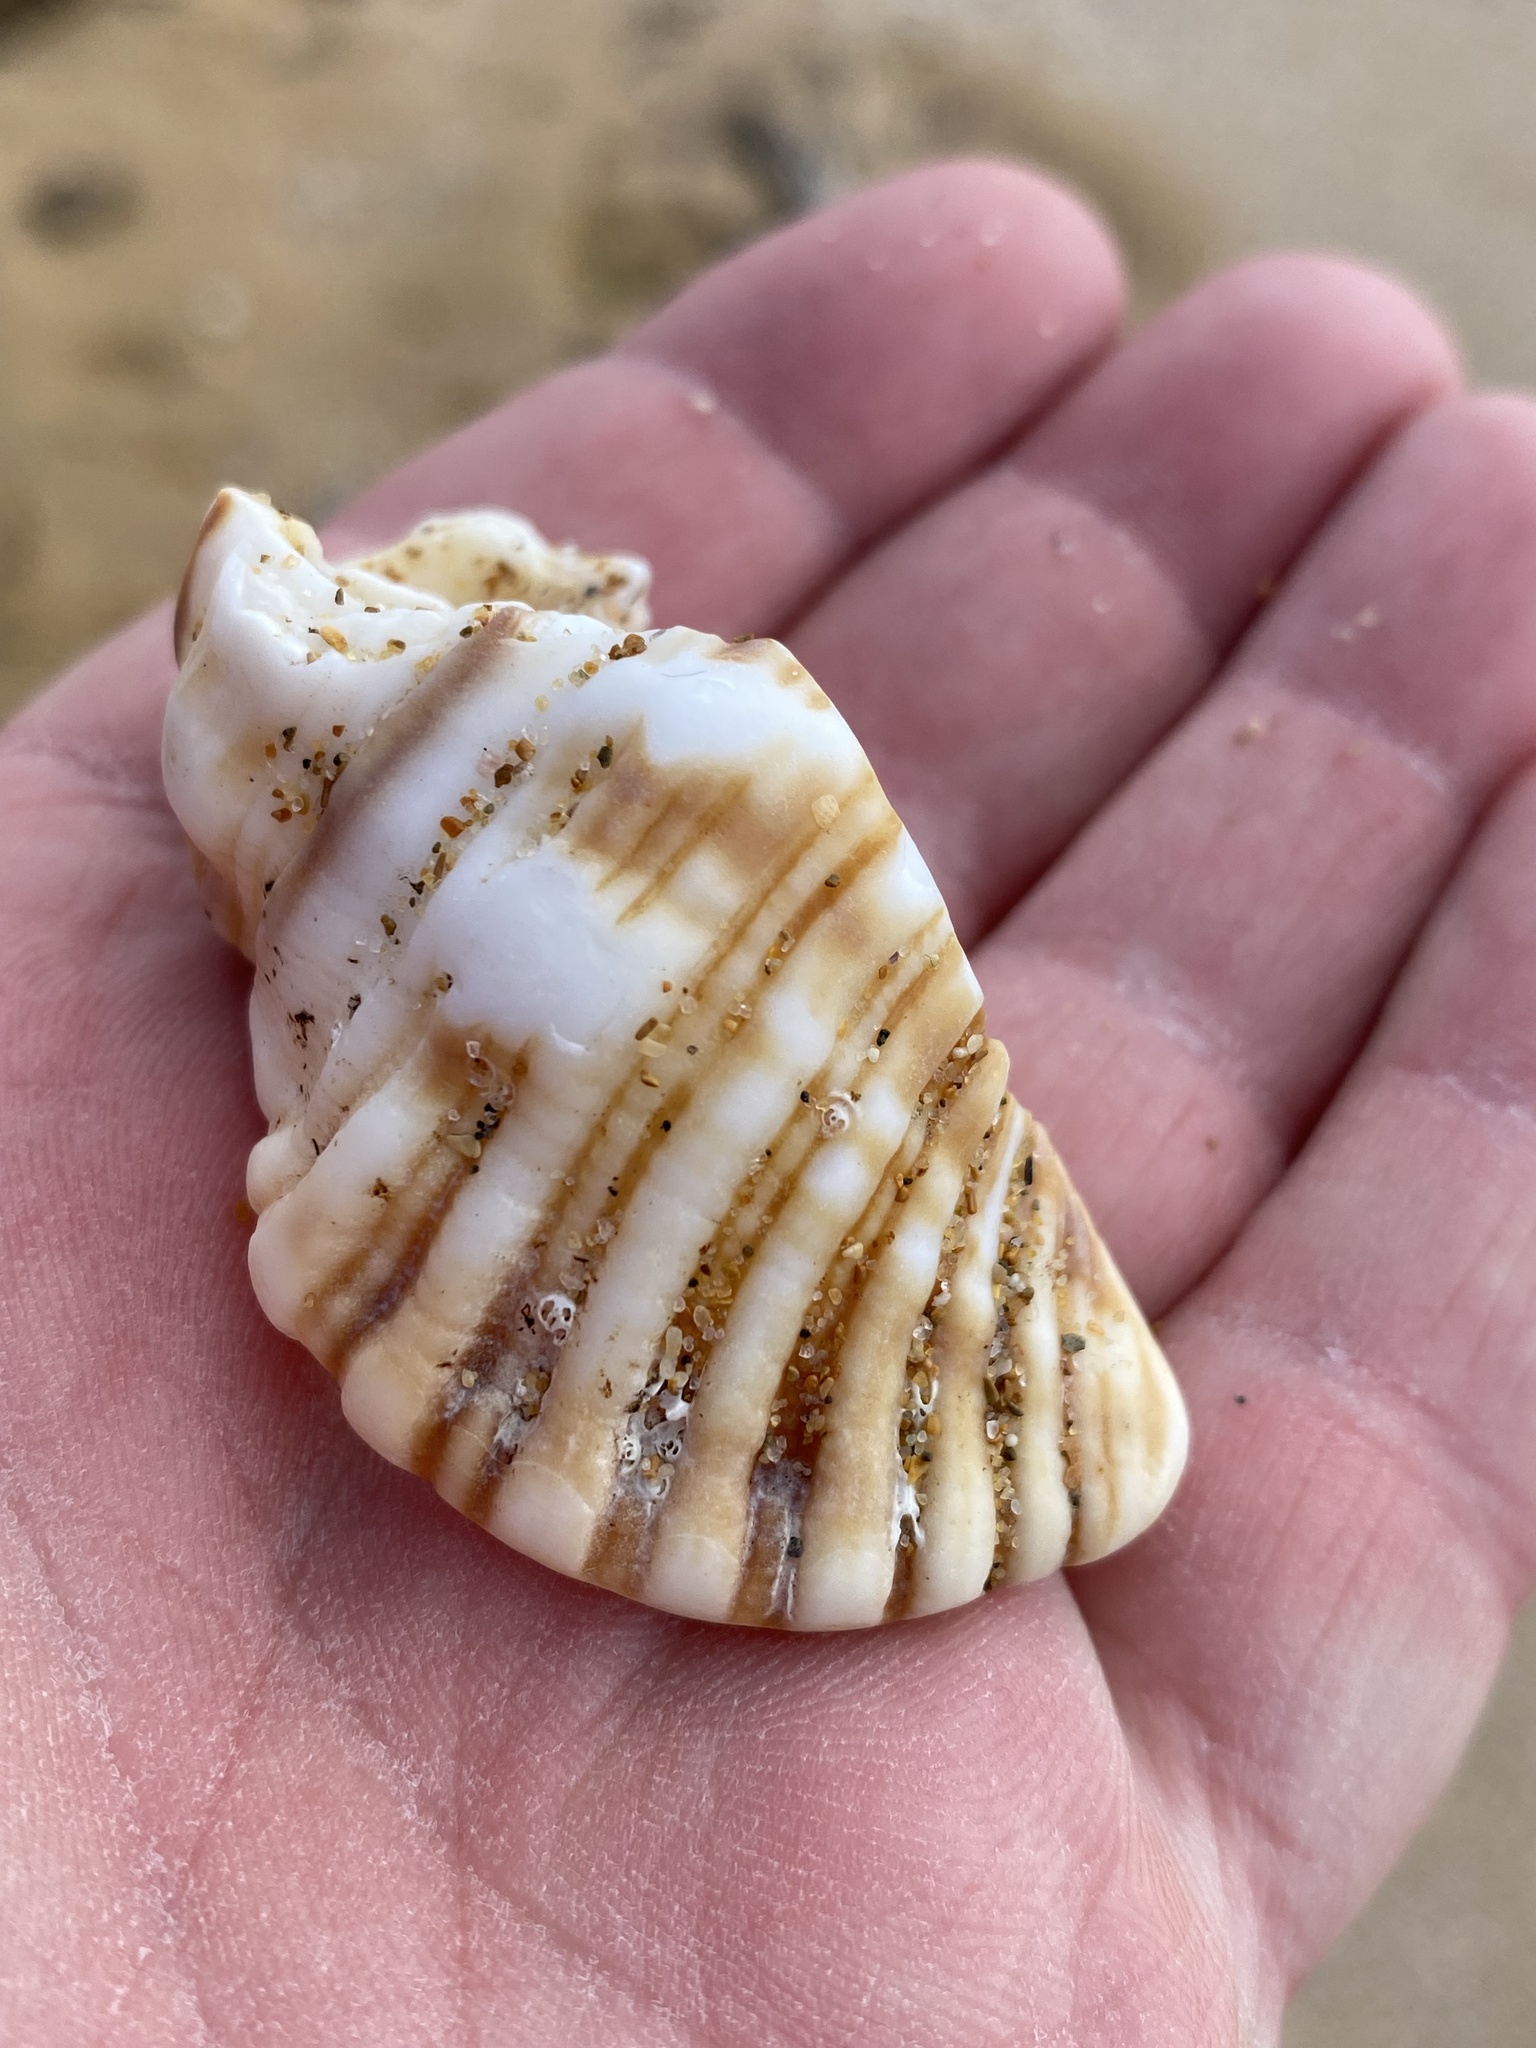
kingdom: Animalia
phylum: Mollusca
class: Gastropoda
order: Littorinimorpha
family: Cymatiidae
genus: Cabestana
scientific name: Cabestana spengleri
